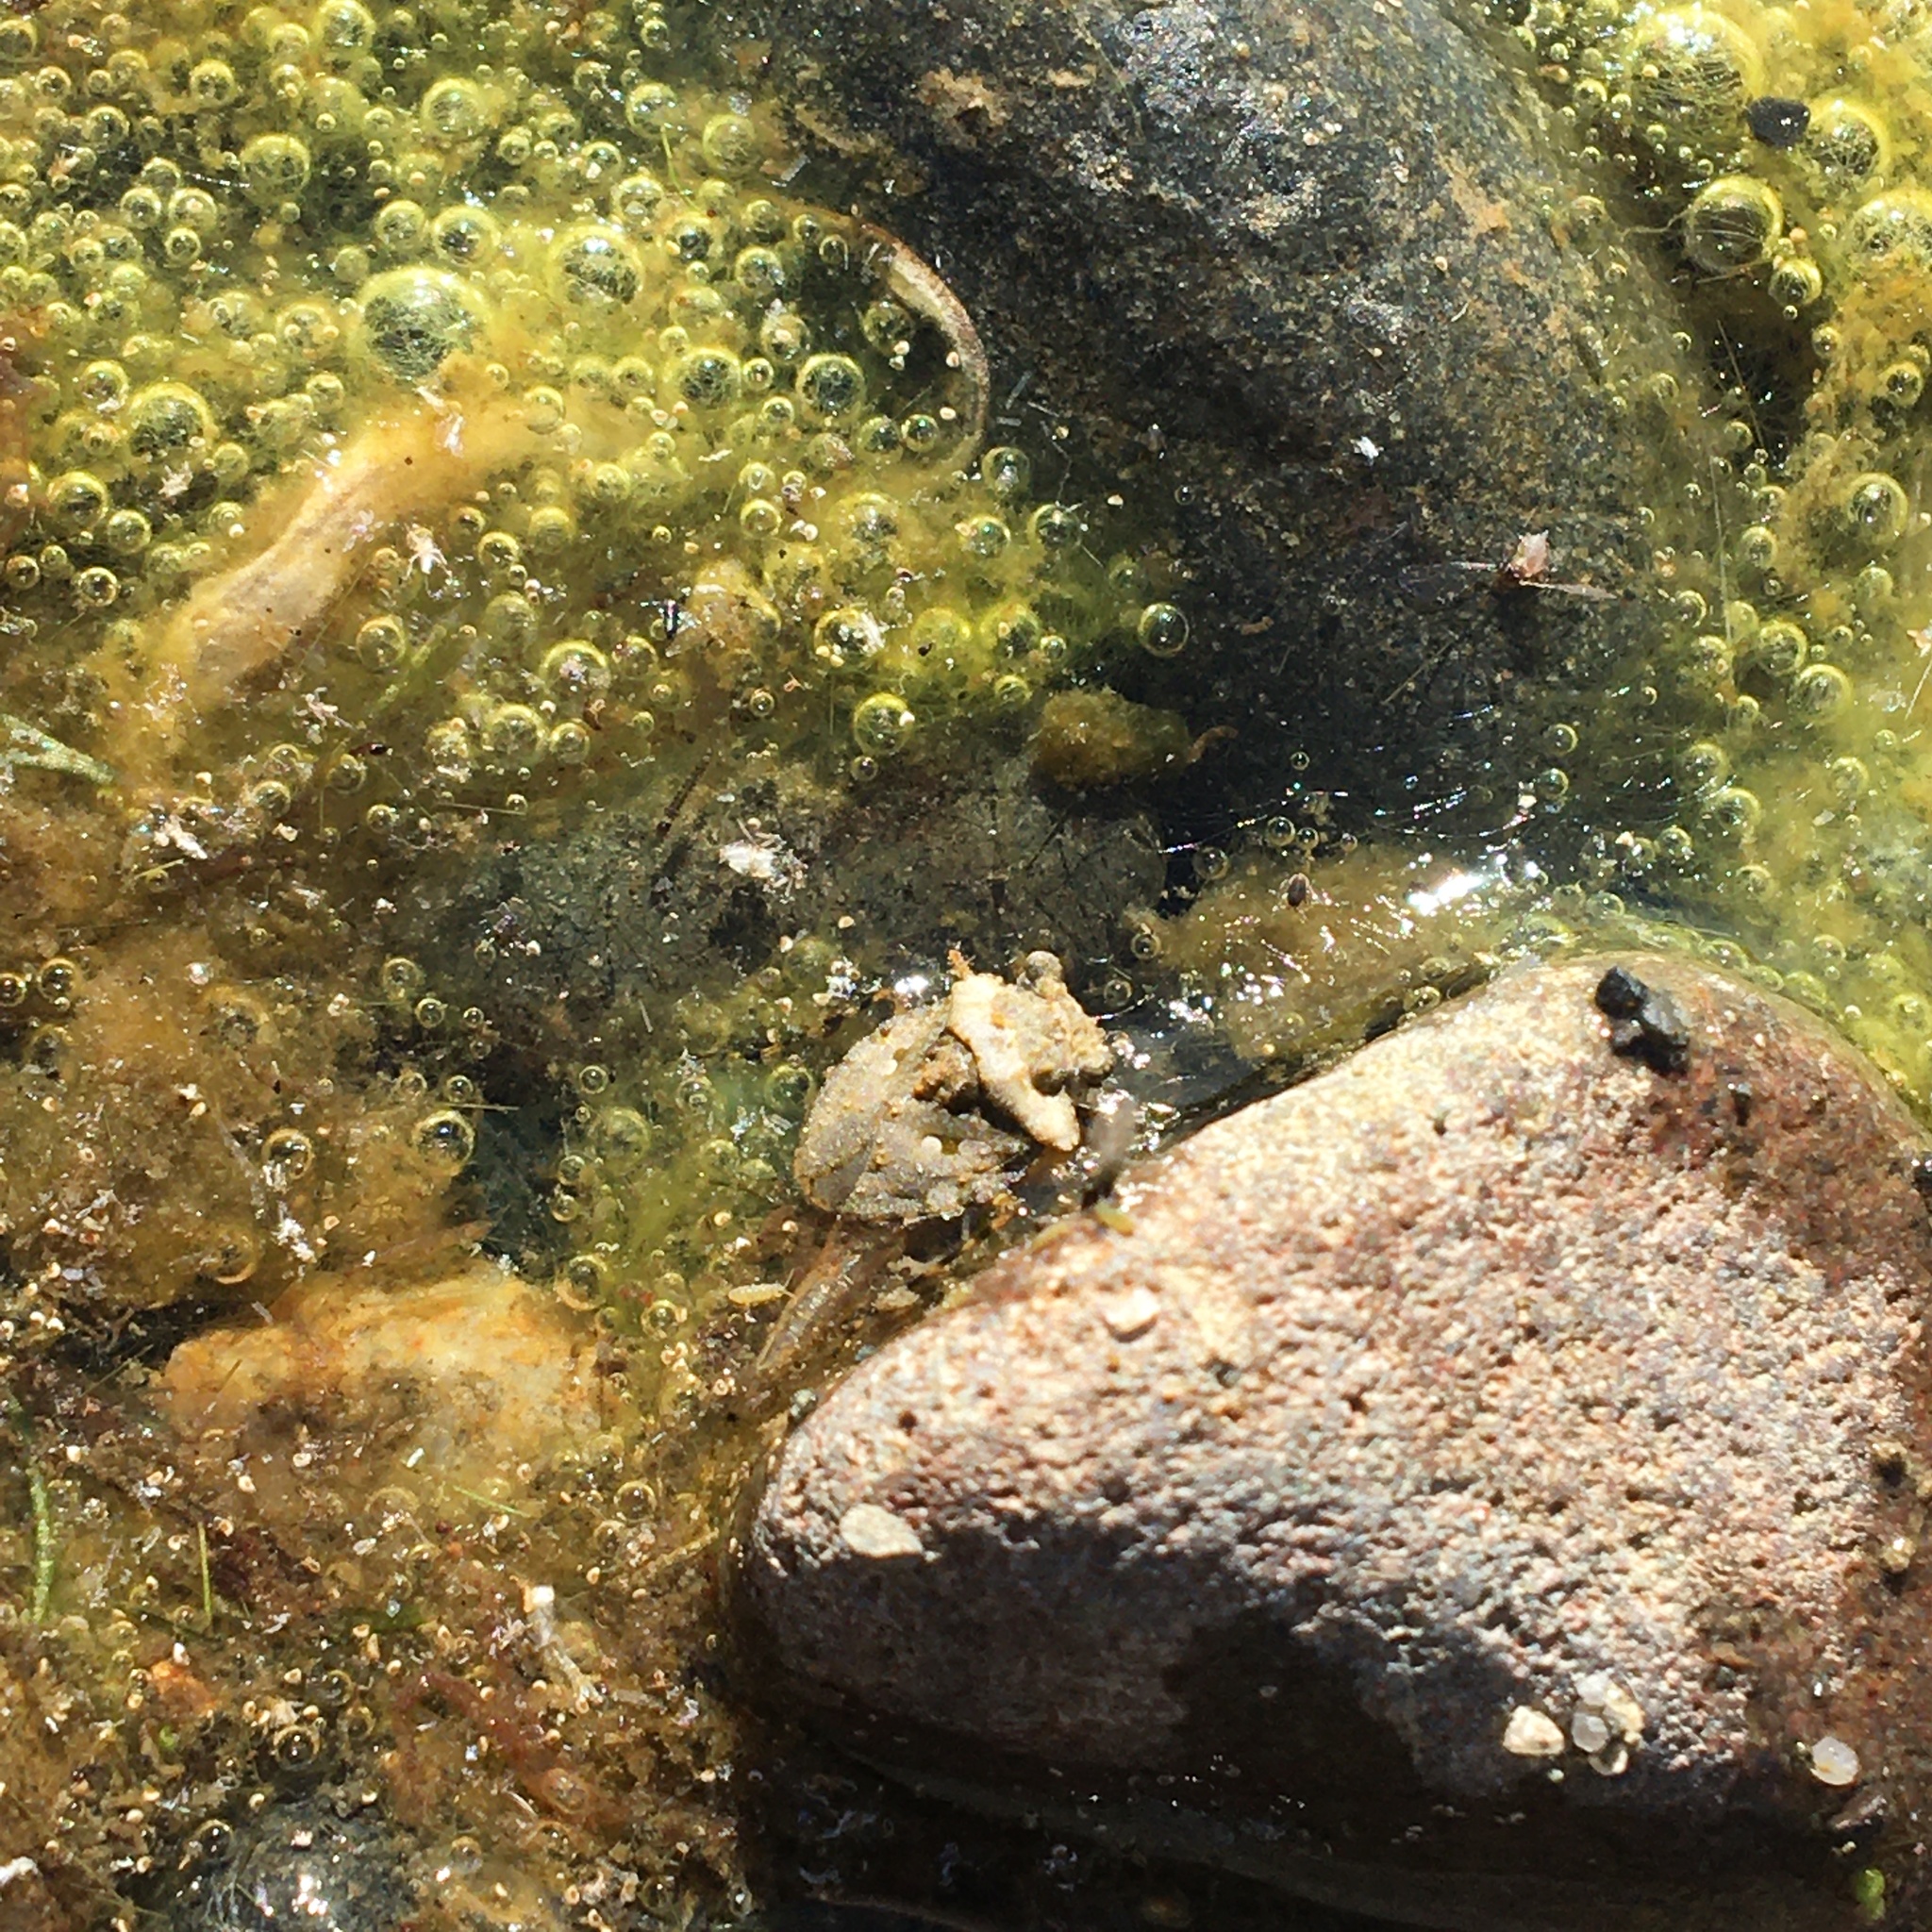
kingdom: Animalia
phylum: Arthropoda
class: Insecta
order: Hemiptera
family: Gelastocoridae
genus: Gelastocoris
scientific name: Gelastocoris oculatus
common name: Toad bug
